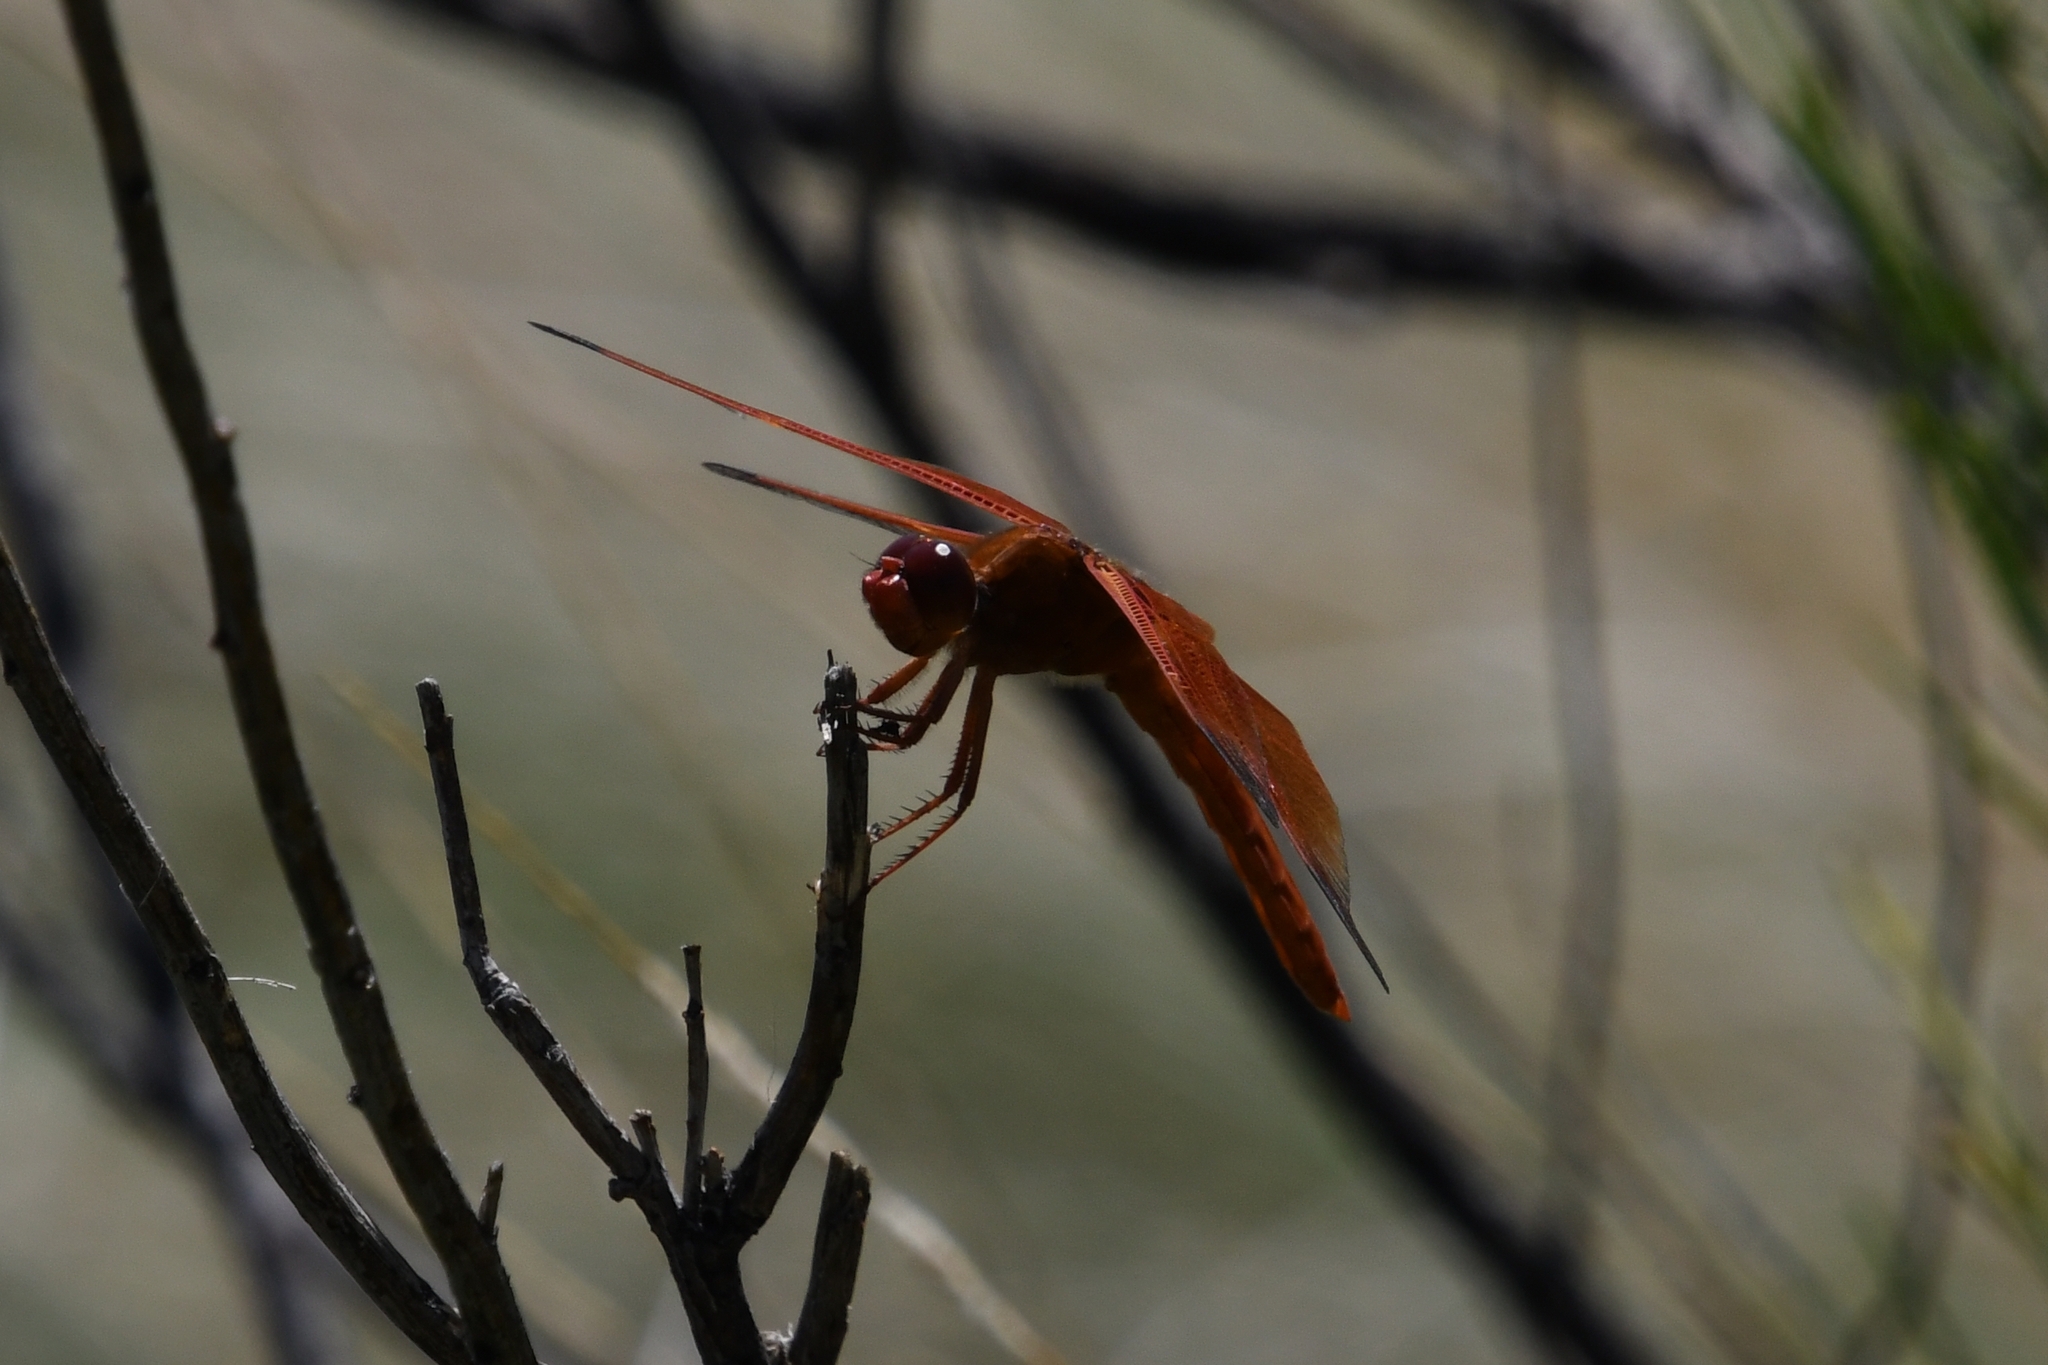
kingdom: Animalia
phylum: Arthropoda
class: Insecta
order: Odonata
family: Libellulidae
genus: Libellula
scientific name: Libellula saturata
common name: Flame skimmer
